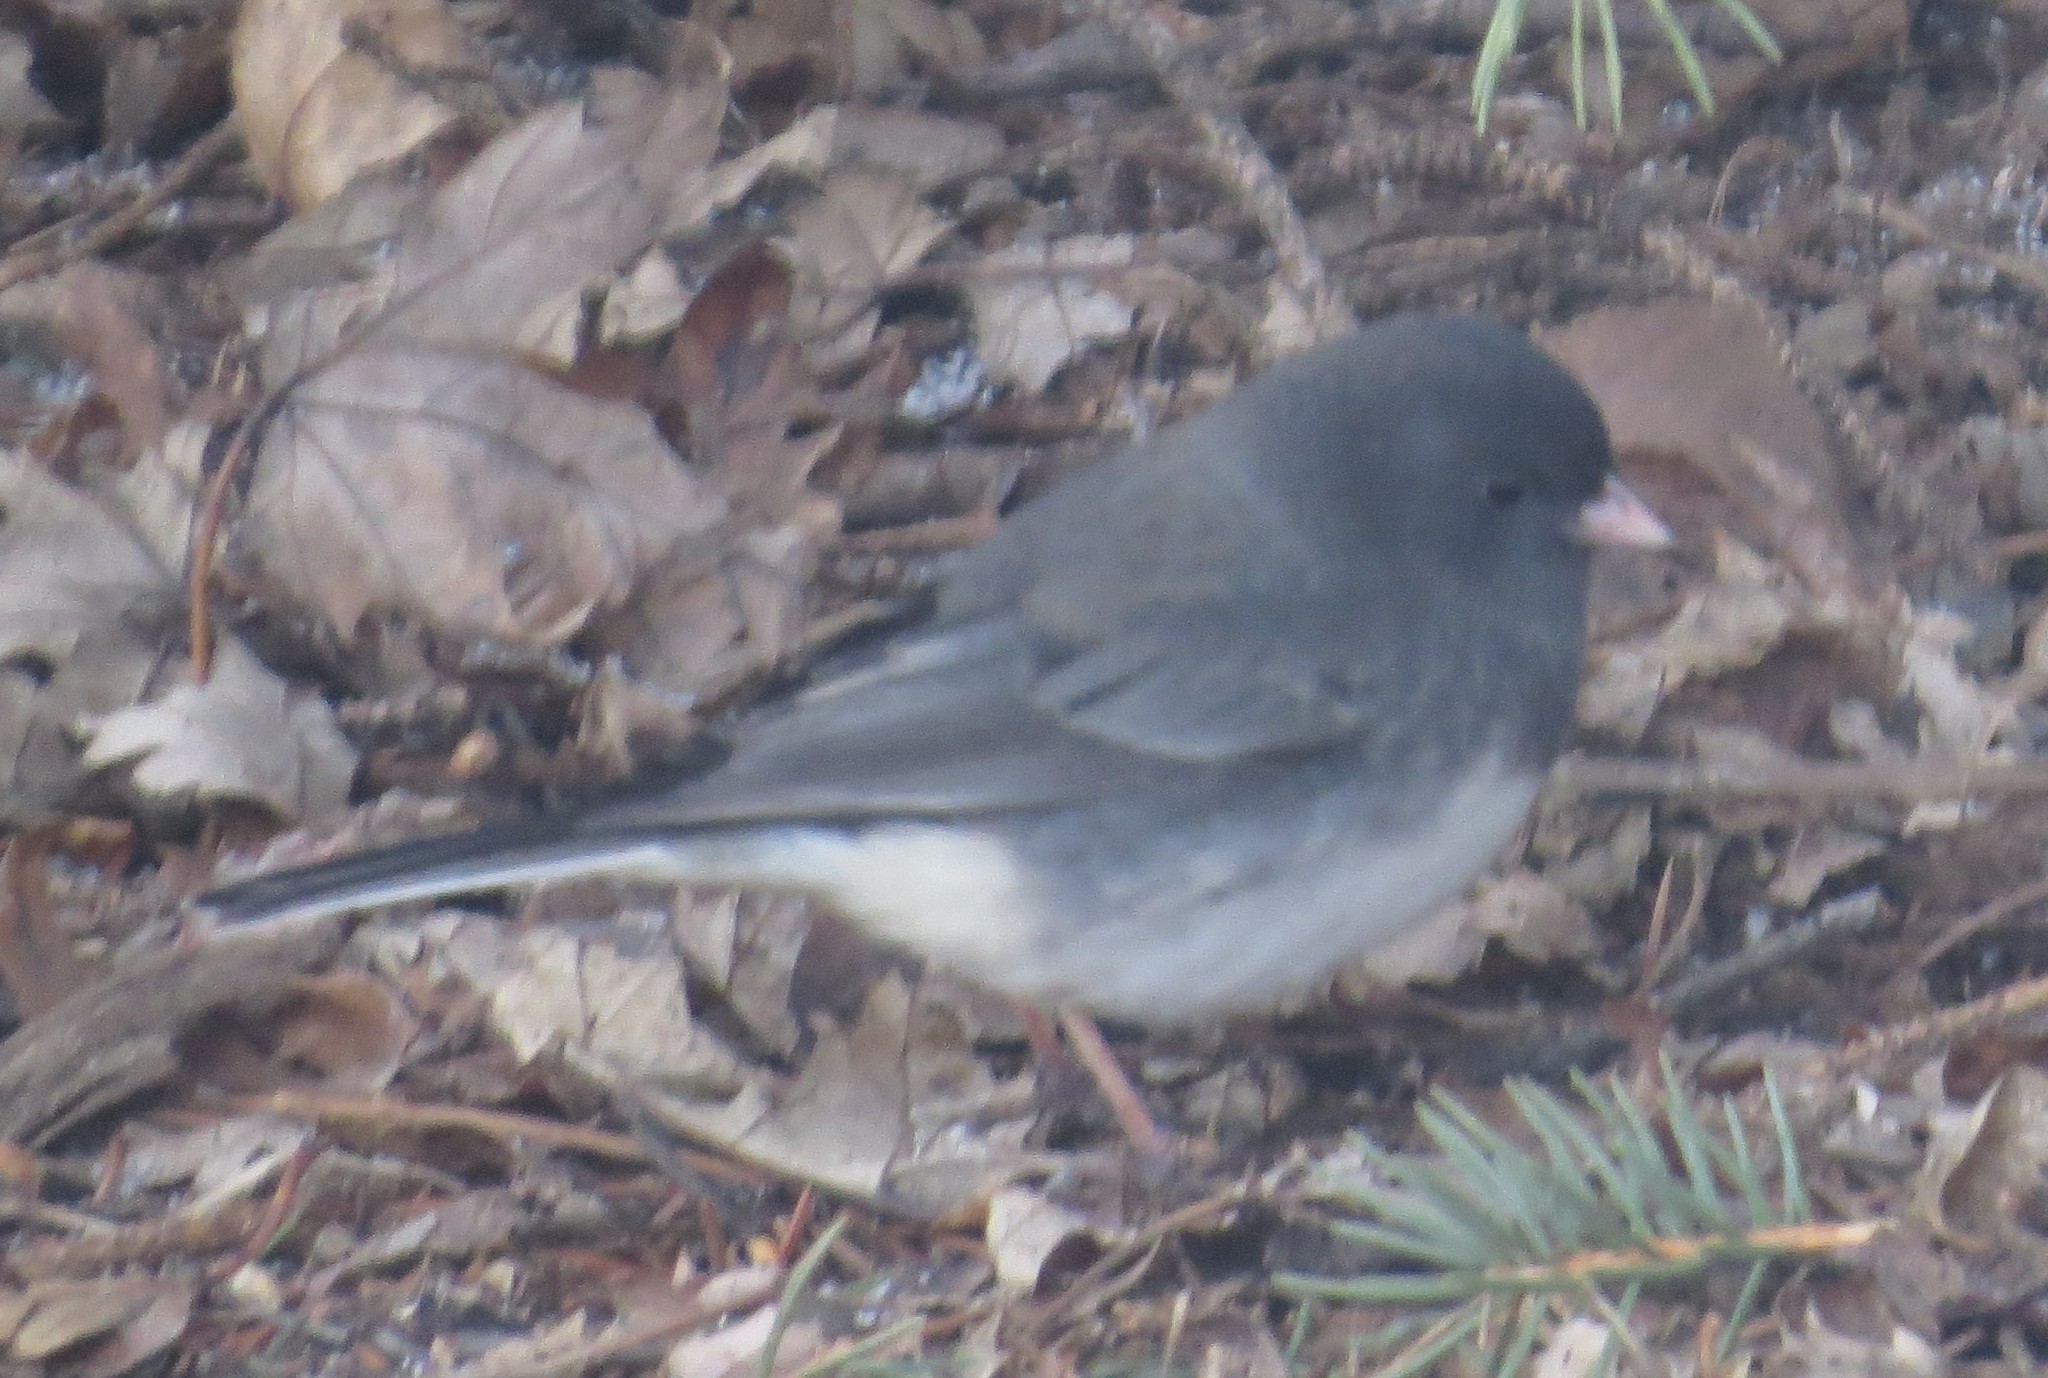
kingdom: Animalia
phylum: Chordata
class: Aves
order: Passeriformes
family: Passerellidae
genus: Junco
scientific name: Junco hyemalis
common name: Dark-eyed junco
